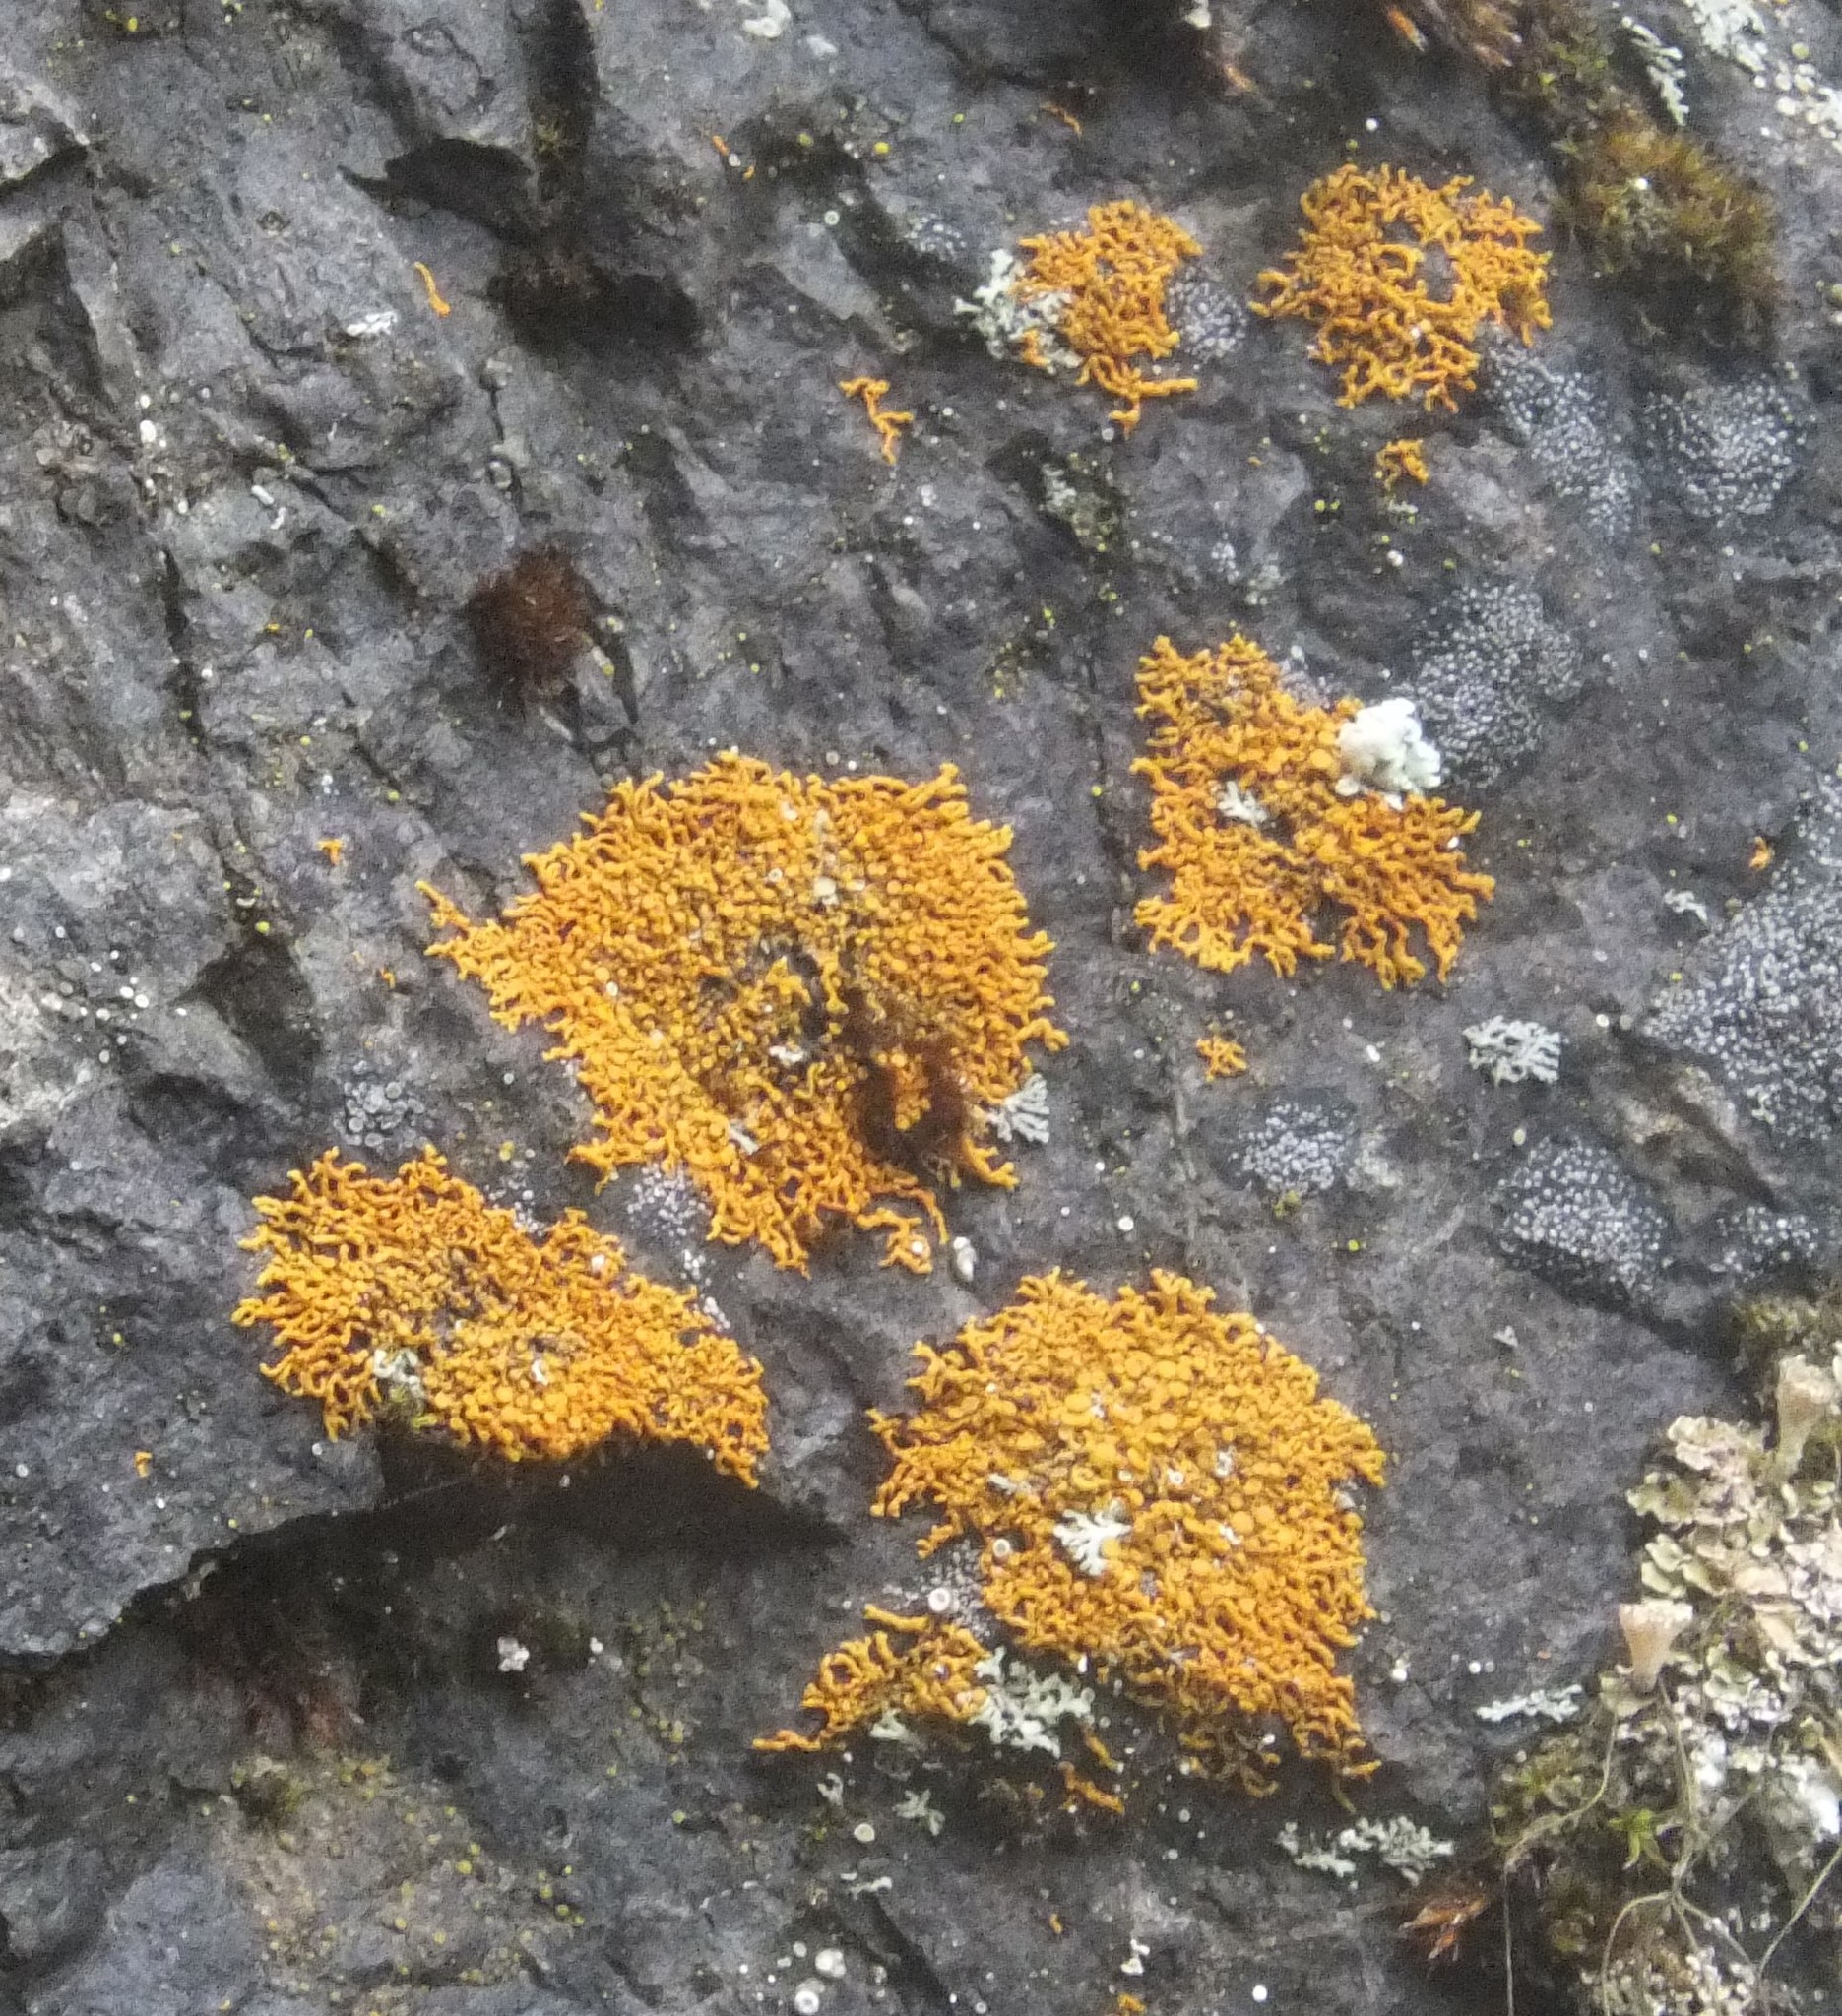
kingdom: Fungi
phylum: Ascomycota
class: Lecanoromycetes
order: Teloschistales
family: Teloschistaceae
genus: Xanthoria
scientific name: Xanthoria elegans
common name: Elegant sunburst lichen
